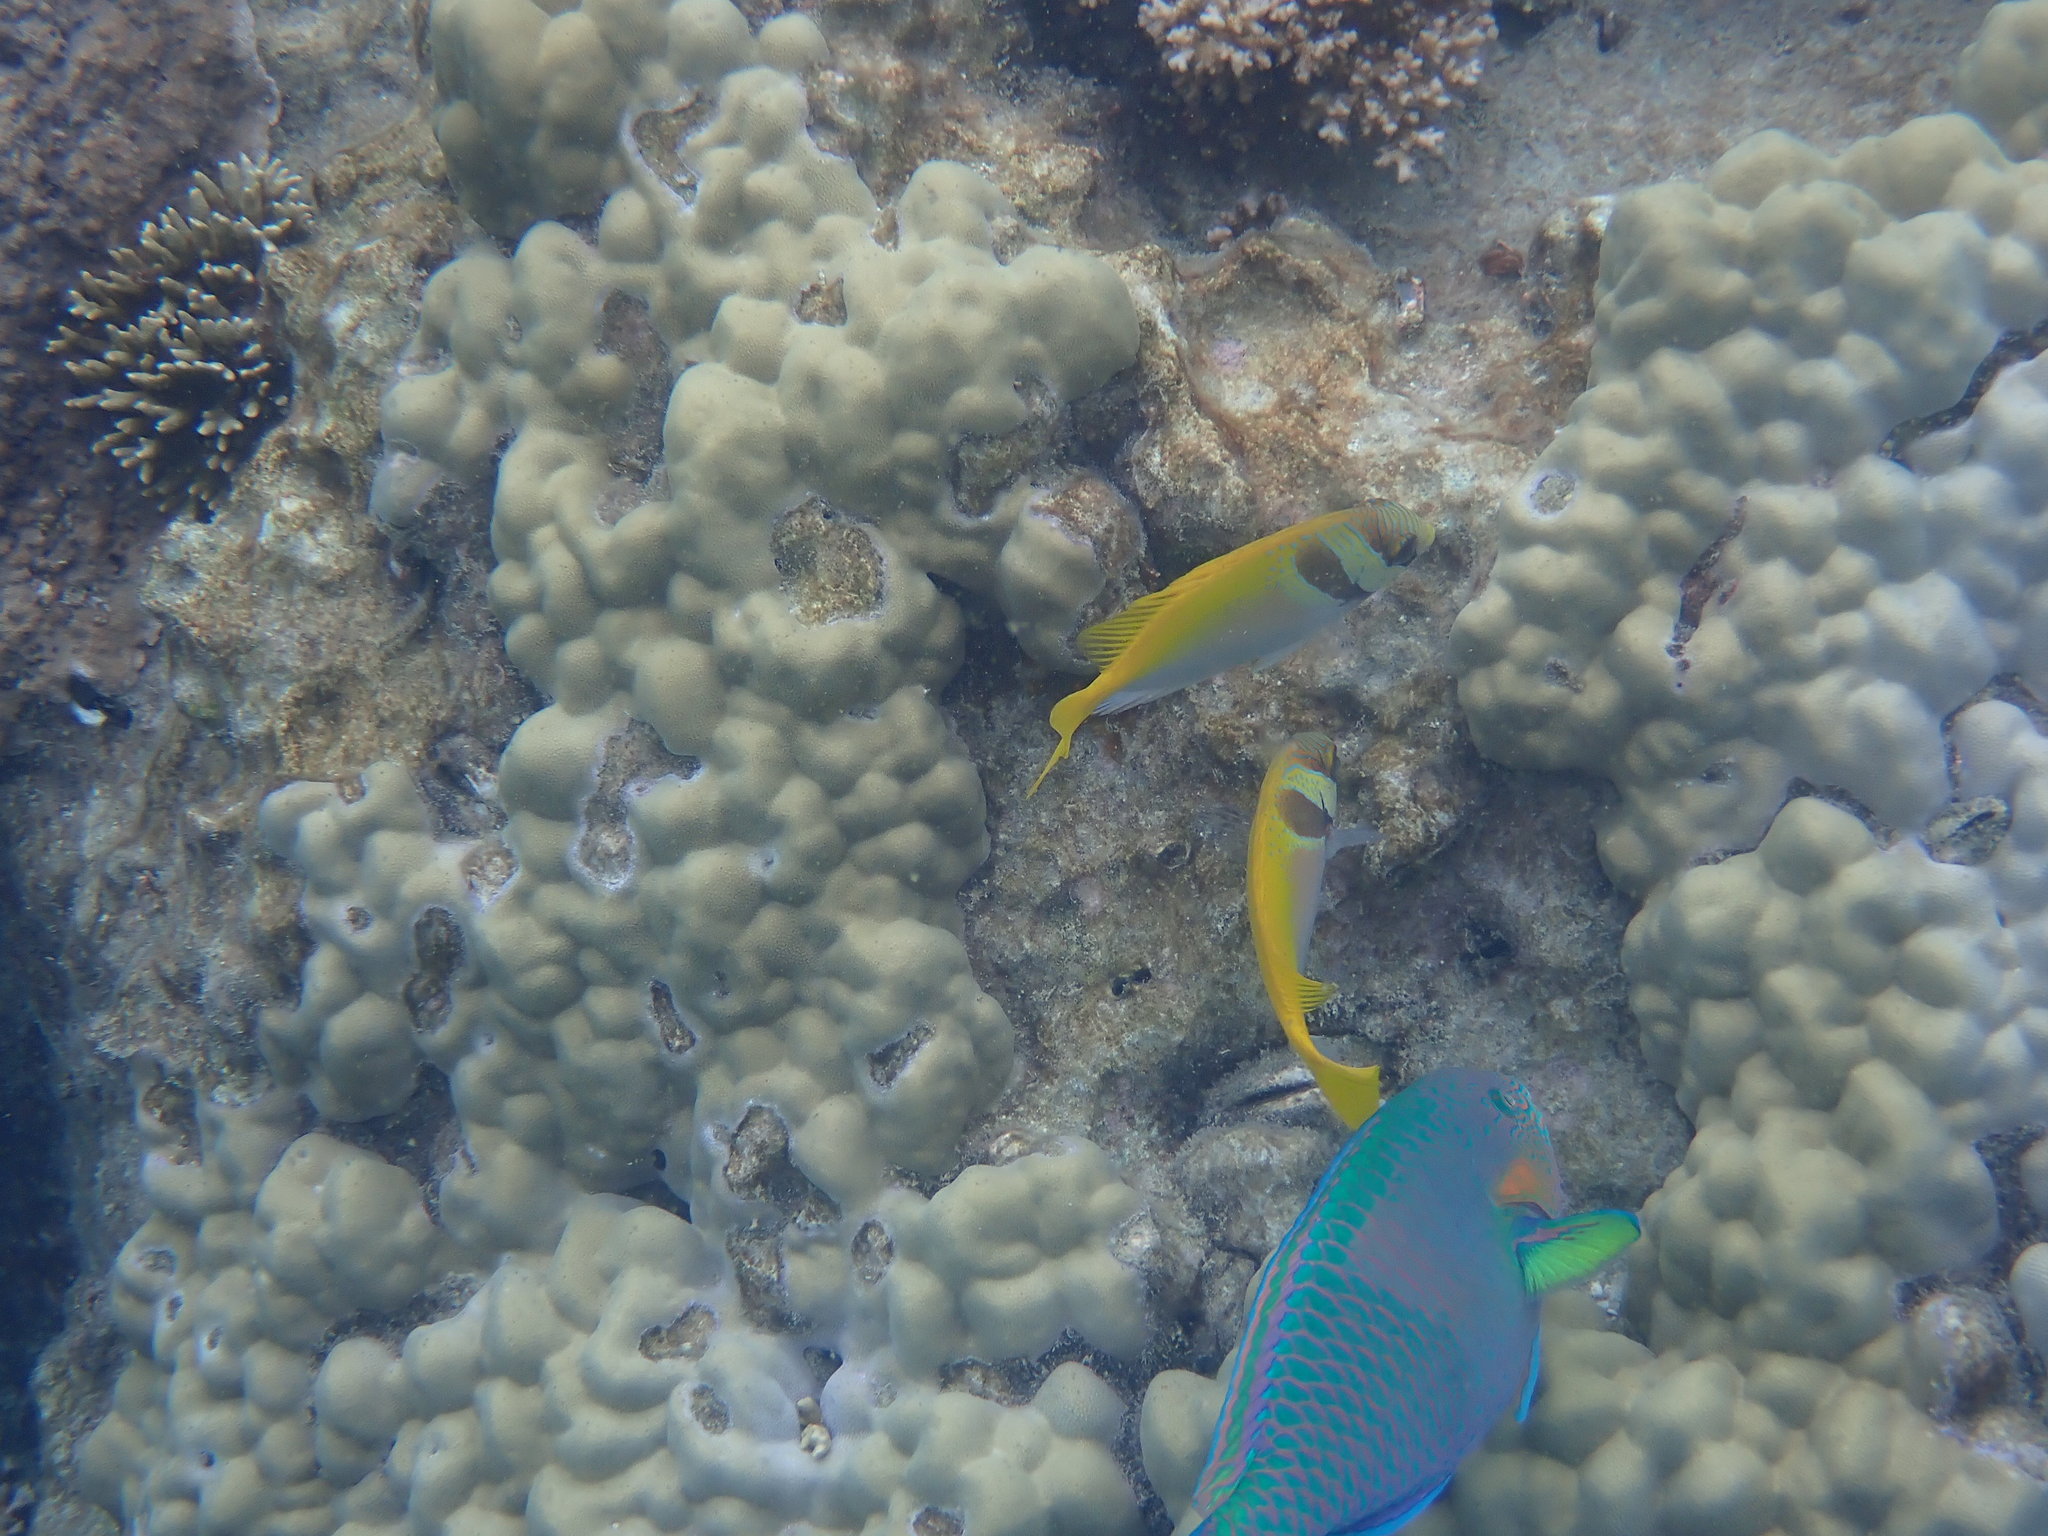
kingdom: Animalia
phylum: Chordata
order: Perciformes
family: Siganidae
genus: Siganus
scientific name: Siganus virgatus
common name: Barhead spinefoot
